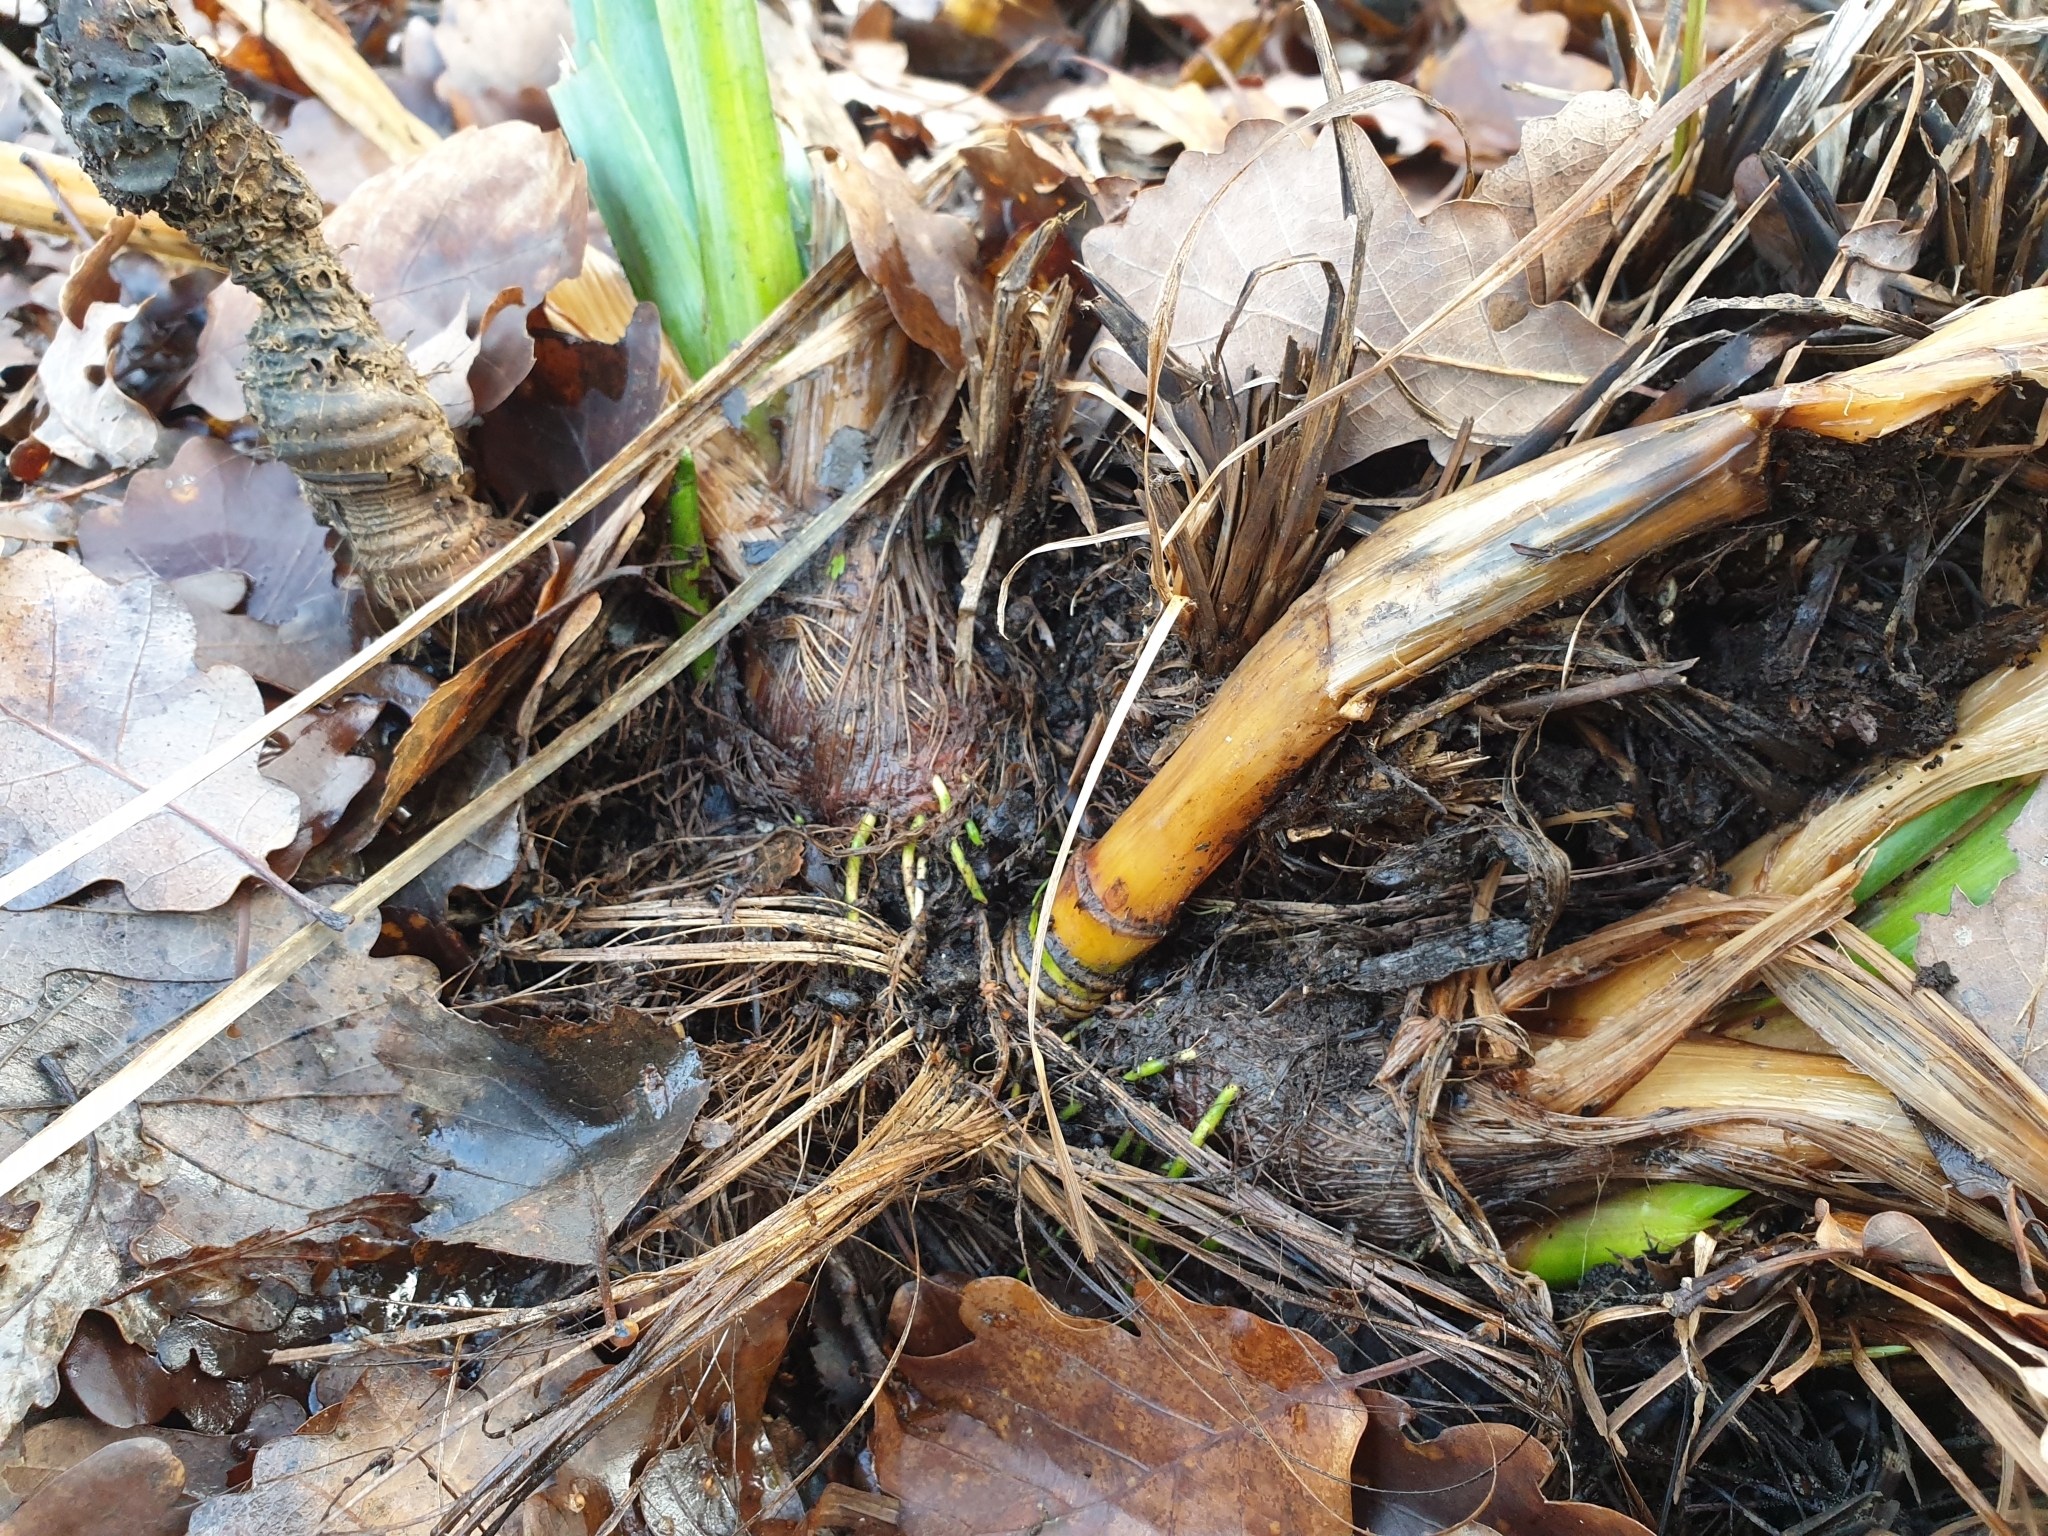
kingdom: Plantae
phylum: Tracheophyta
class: Liliopsida
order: Asparagales
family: Iridaceae
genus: Iris
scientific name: Iris pseudacorus
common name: Yellow flag
